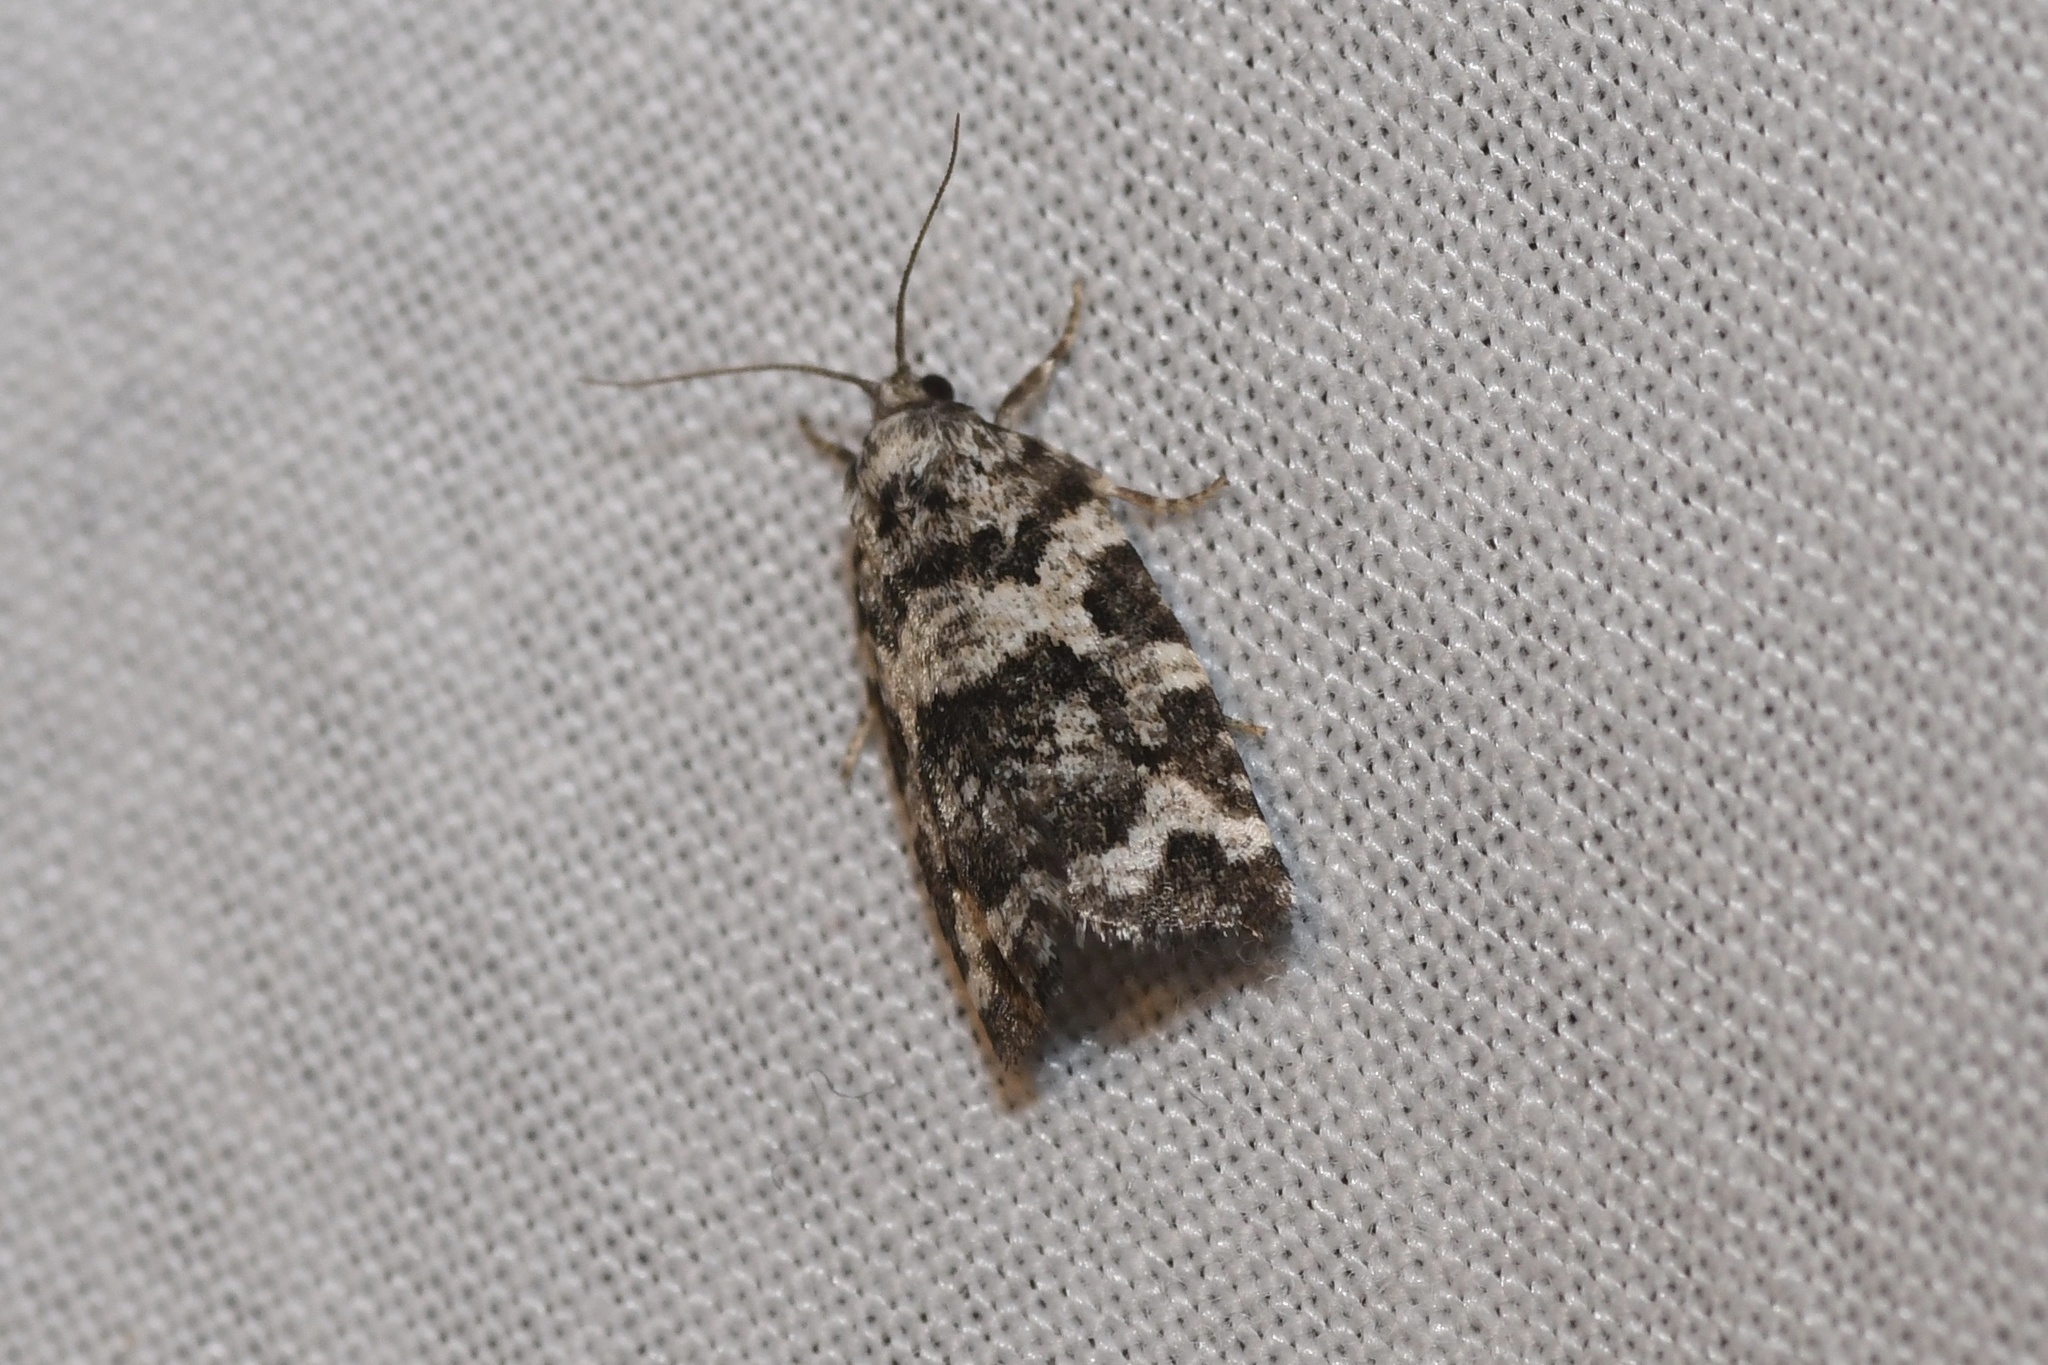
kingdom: Animalia
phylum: Arthropoda
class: Insecta
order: Lepidoptera
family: Tortricidae
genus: Archips
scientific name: Archips packardiana
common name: Spring spruce needle moth
